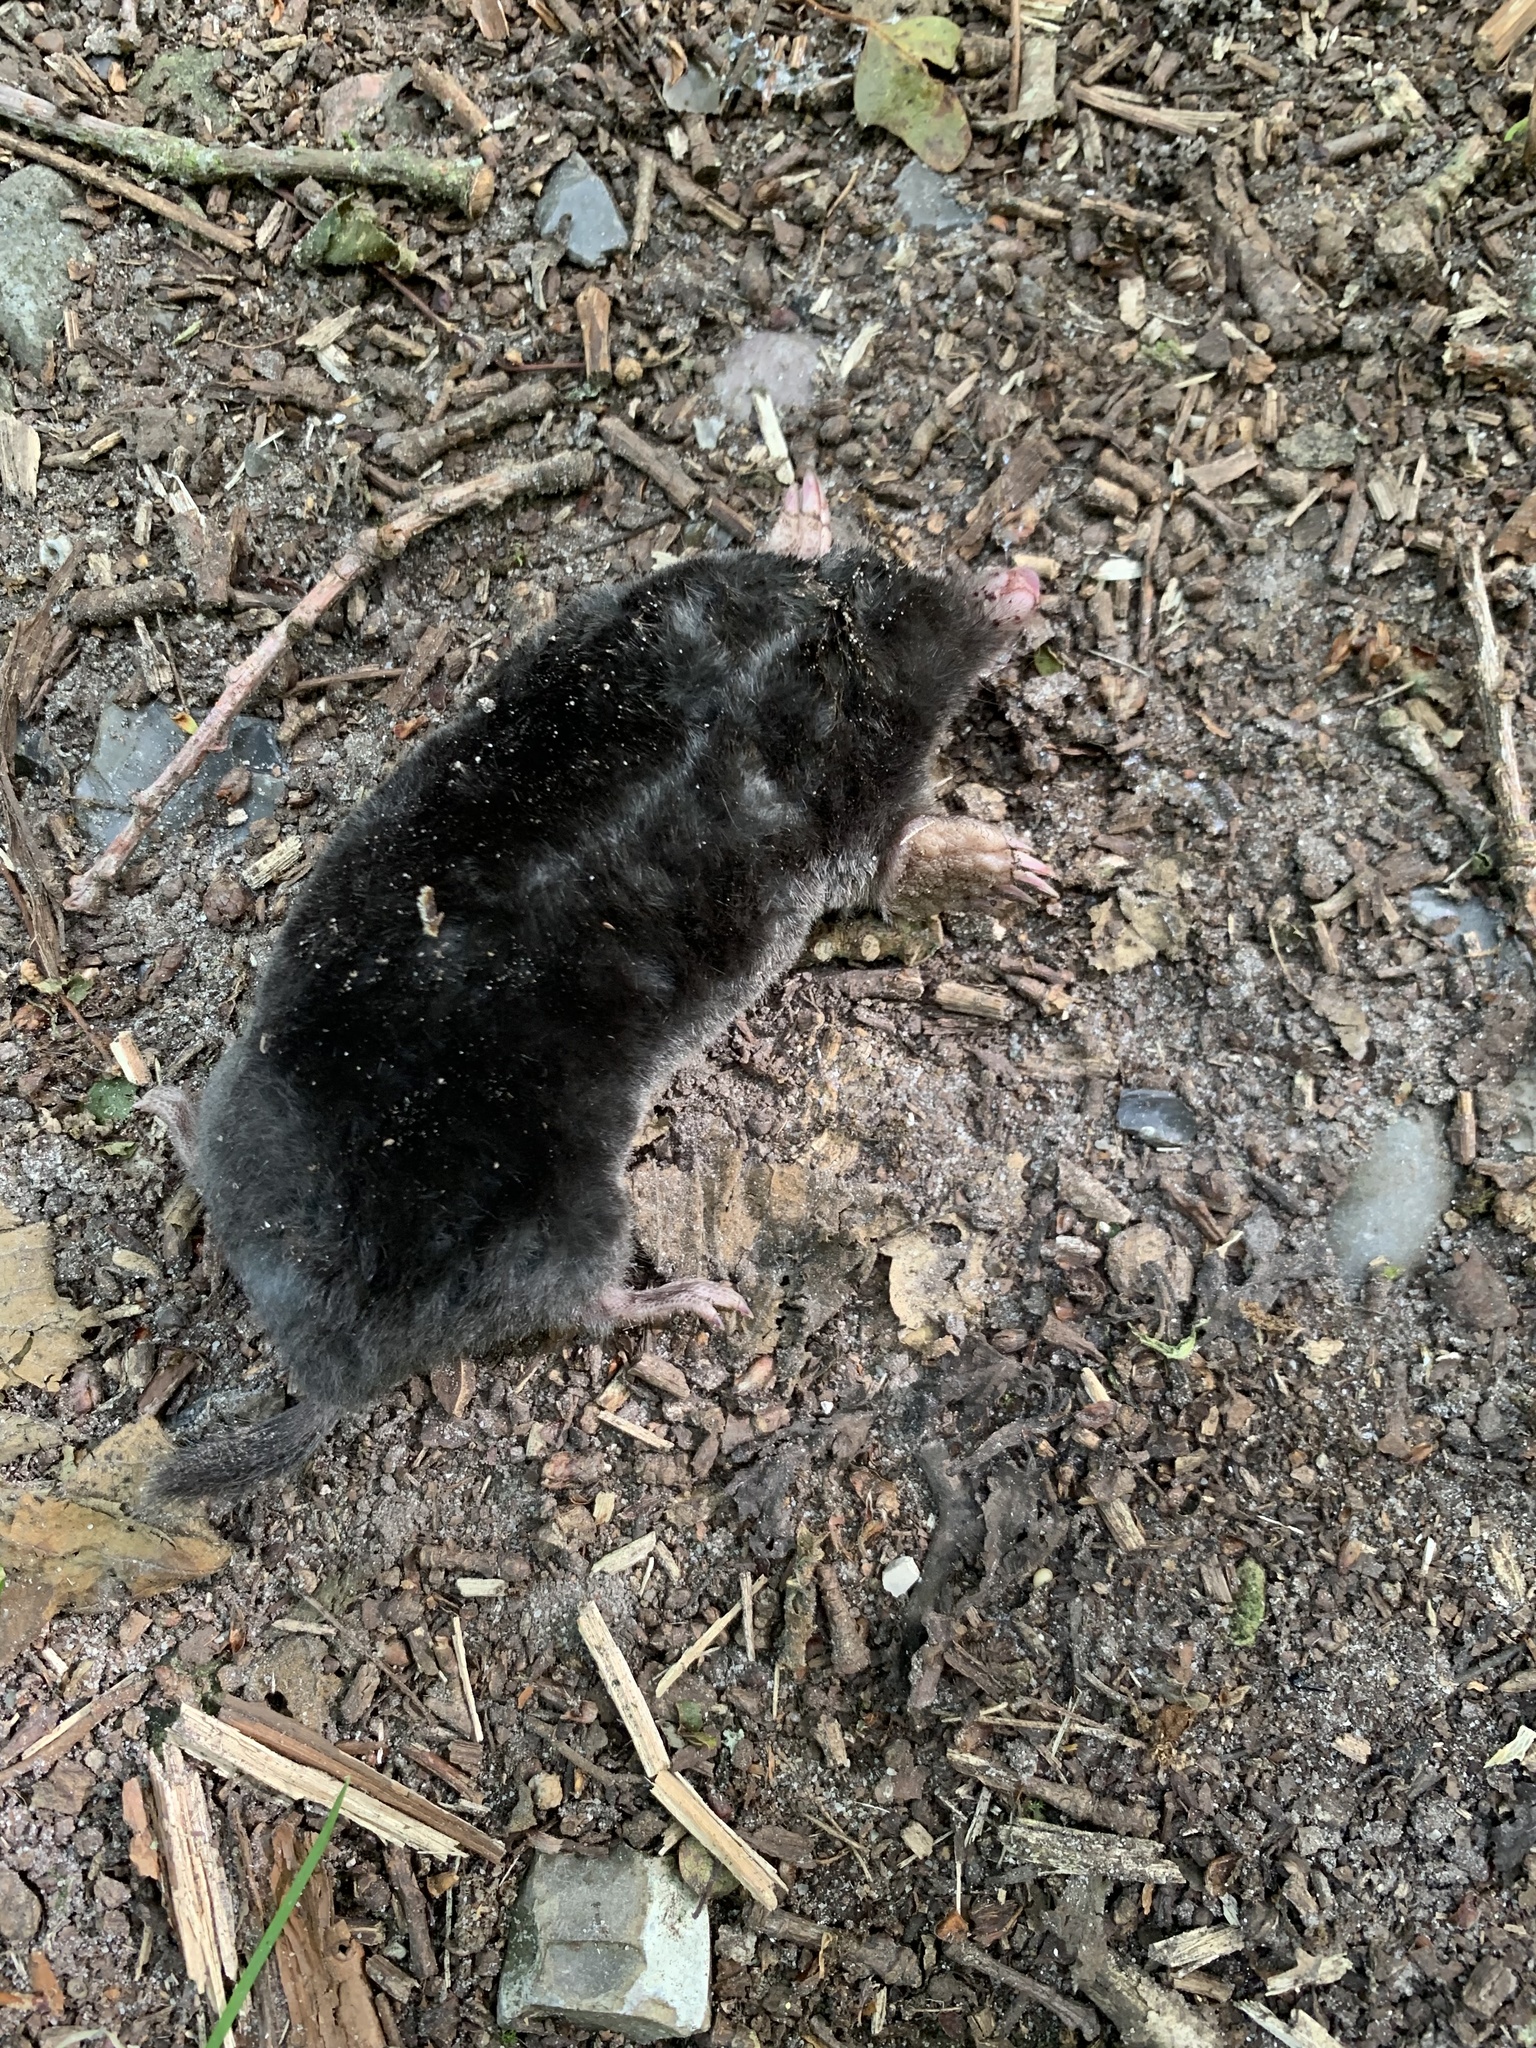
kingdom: Animalia
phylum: Chordata
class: Mammalia
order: Soricomorpha
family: Talpidae
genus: Talpa
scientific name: Talpa europaea
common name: European mole
